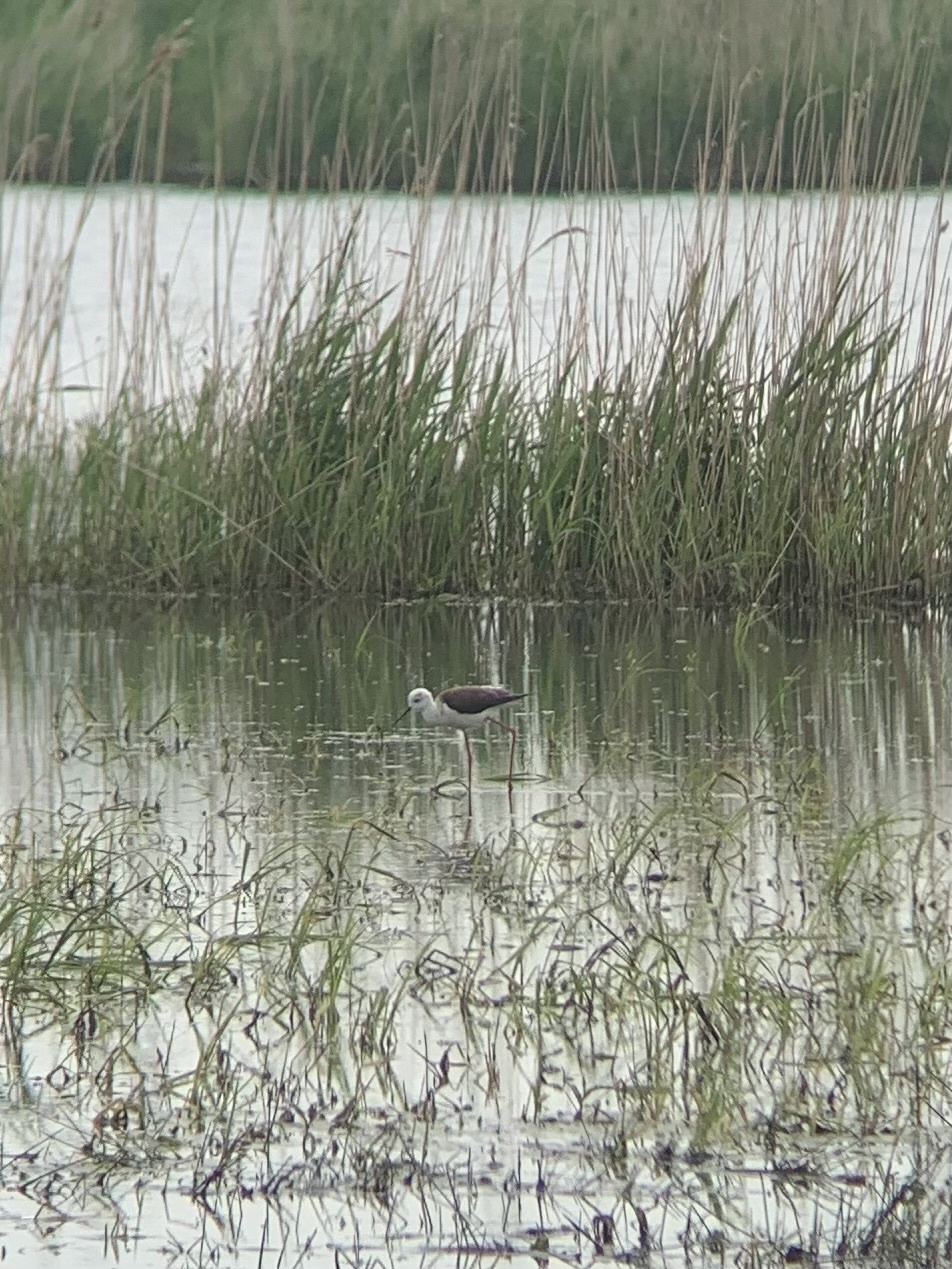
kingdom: Animalia
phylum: Chordata
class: Aves
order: Charadriiformes
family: Recurvirostridae
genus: Himantopus
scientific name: Himantopus himantopus
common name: Black-winged stilt
